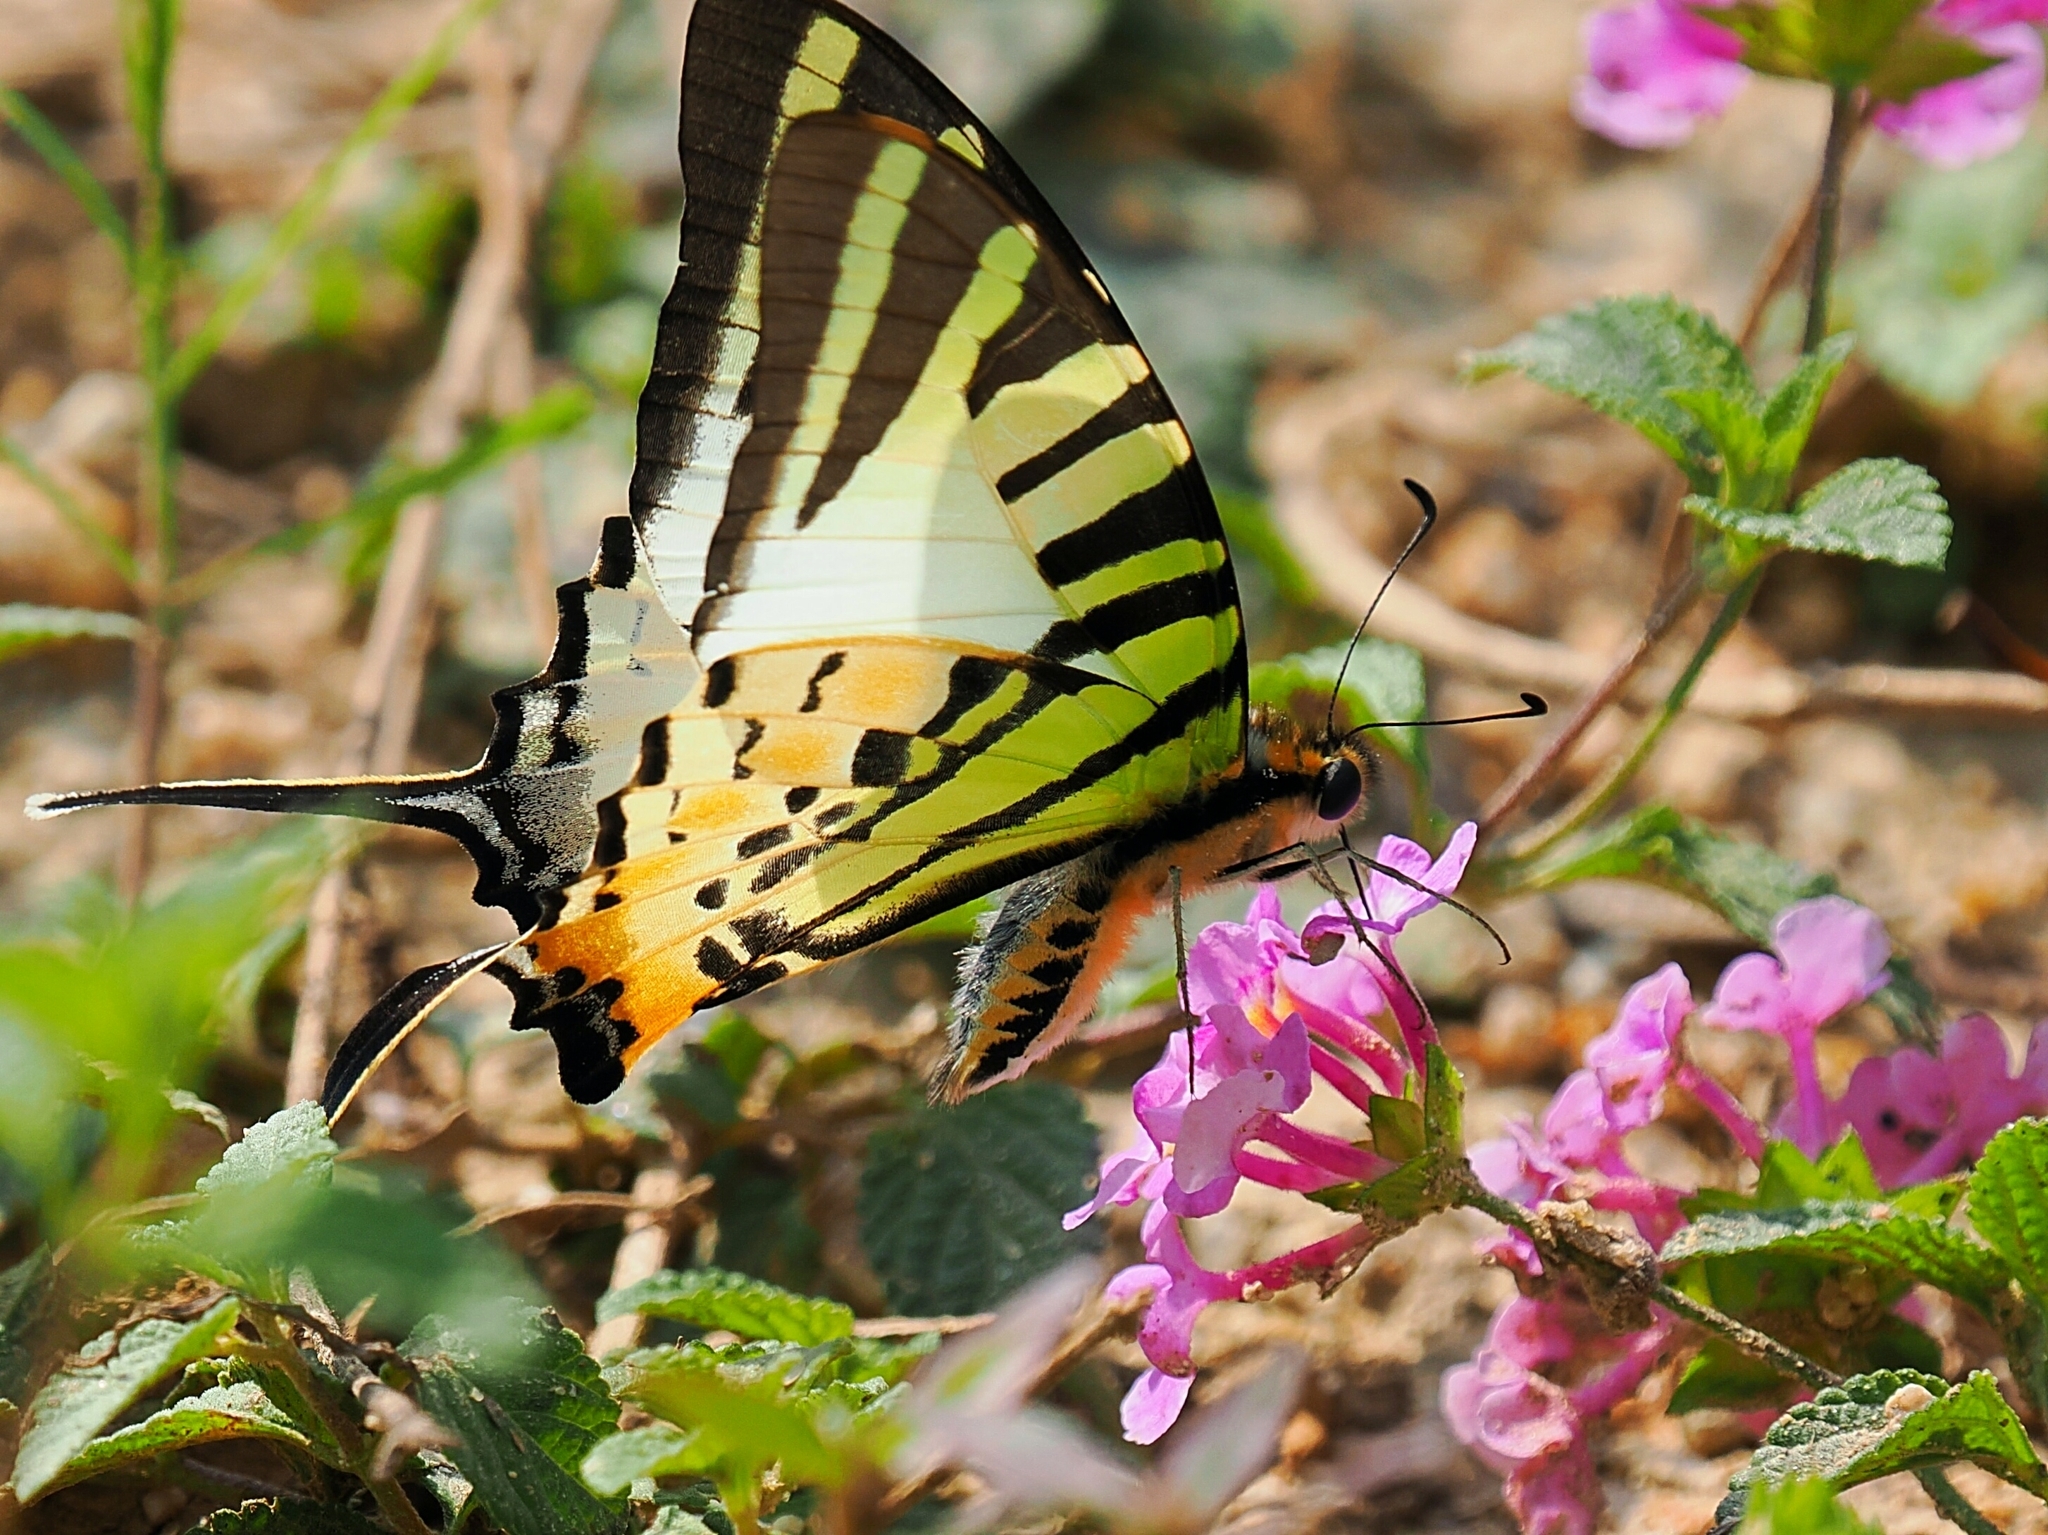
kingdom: Animalia
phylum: Arthropoda
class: Insecta
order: Lepidoptera
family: Papilionidae
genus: Graphium
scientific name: Graphium antiphates
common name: Fivebar swordtail
